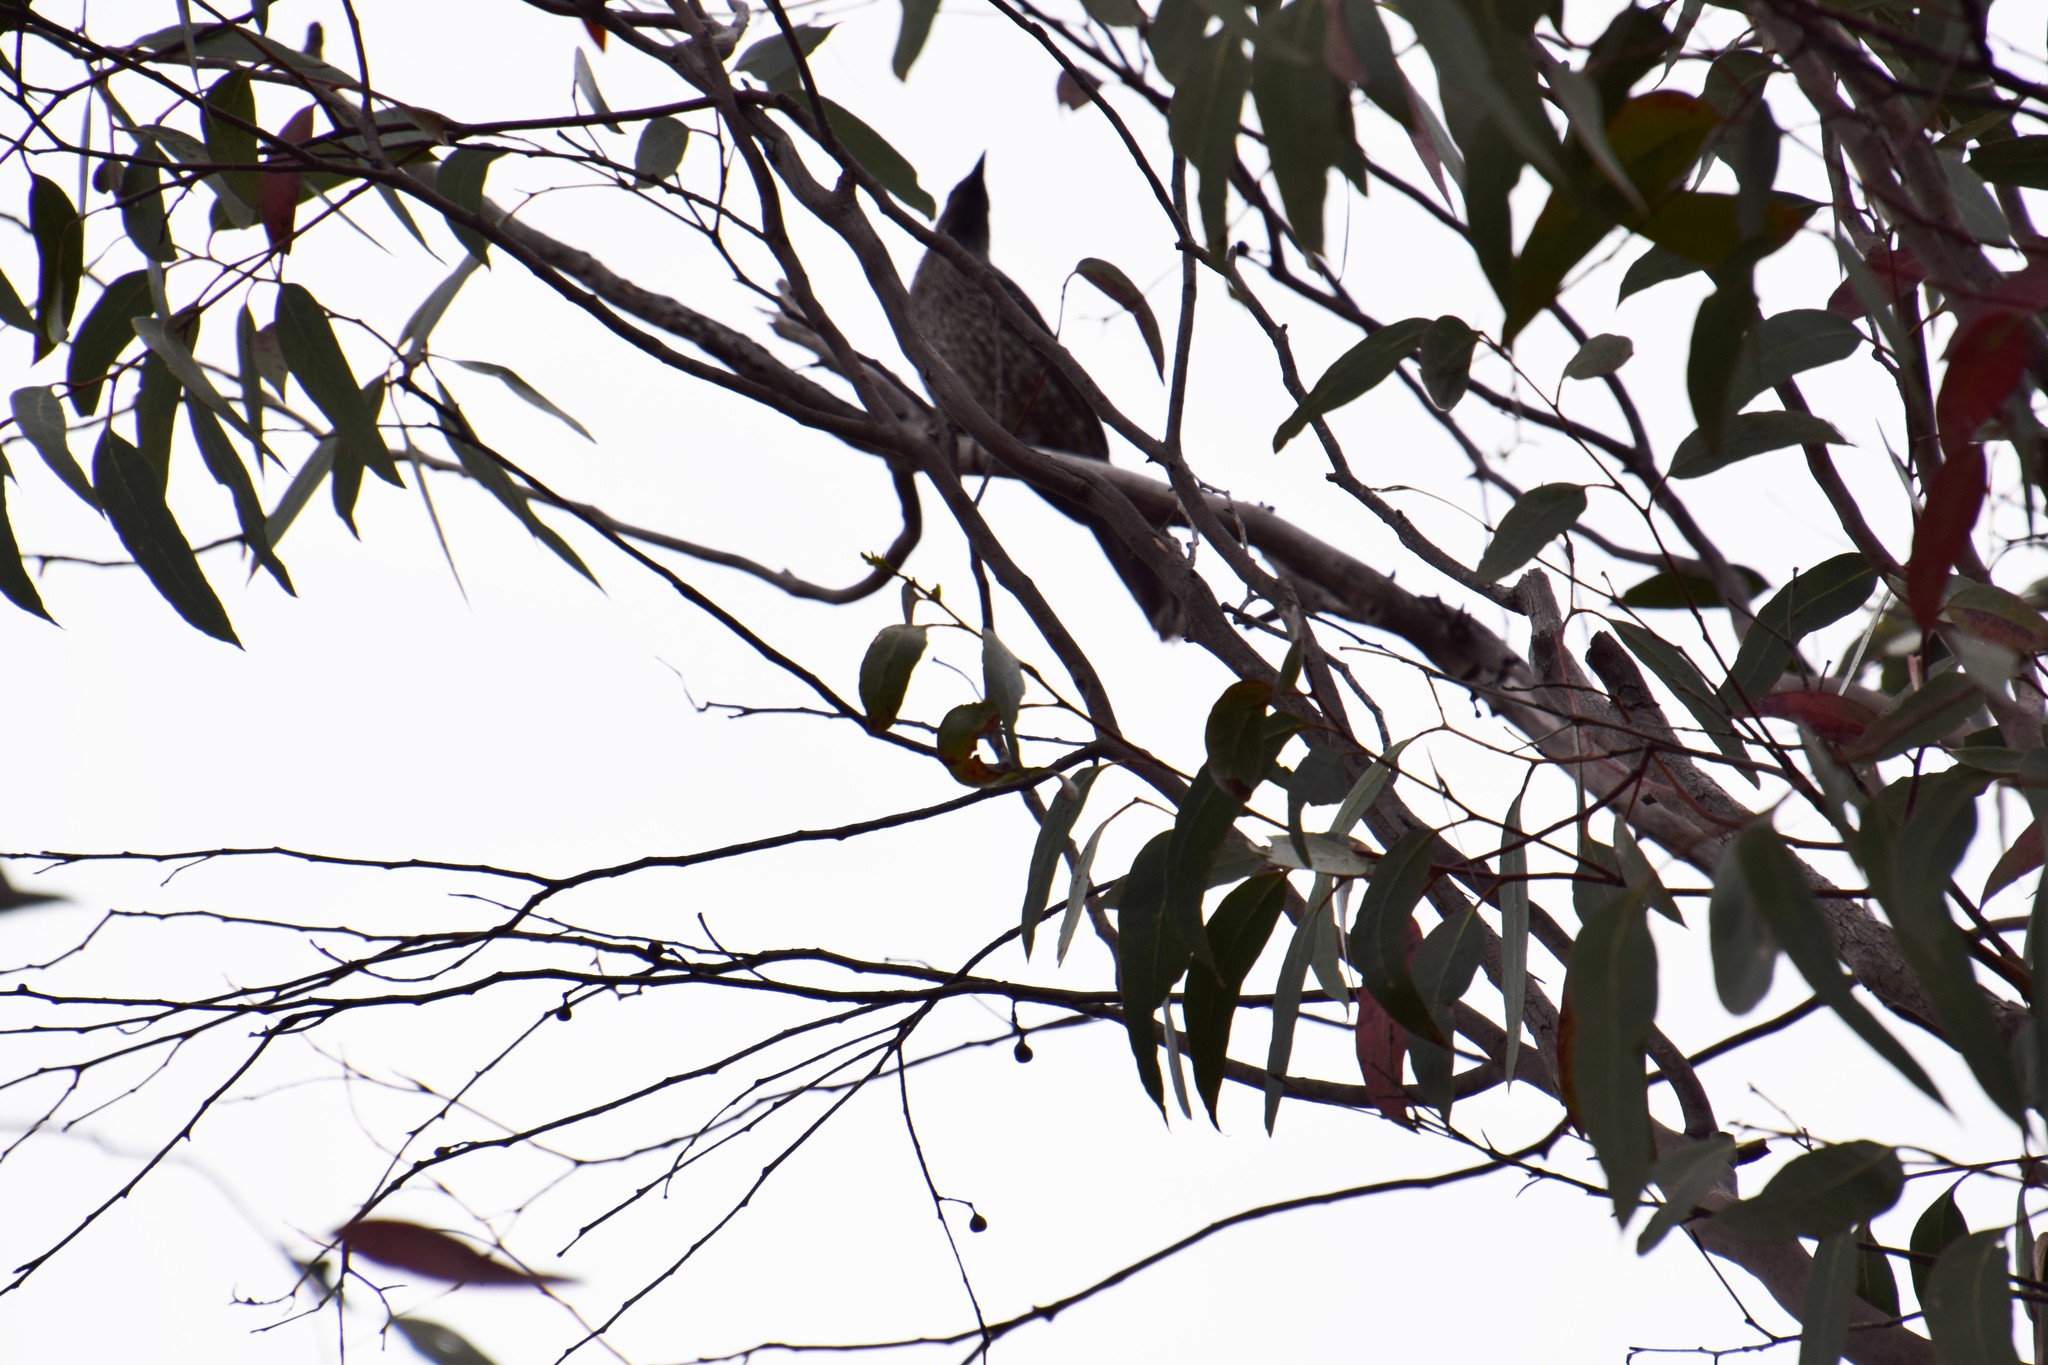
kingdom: Animalia
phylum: Chordata
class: Aves
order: Passeriformes
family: Meliphagidae
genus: Anthochaera
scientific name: Anthochaera chrysoptera
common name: Little wattlebird
